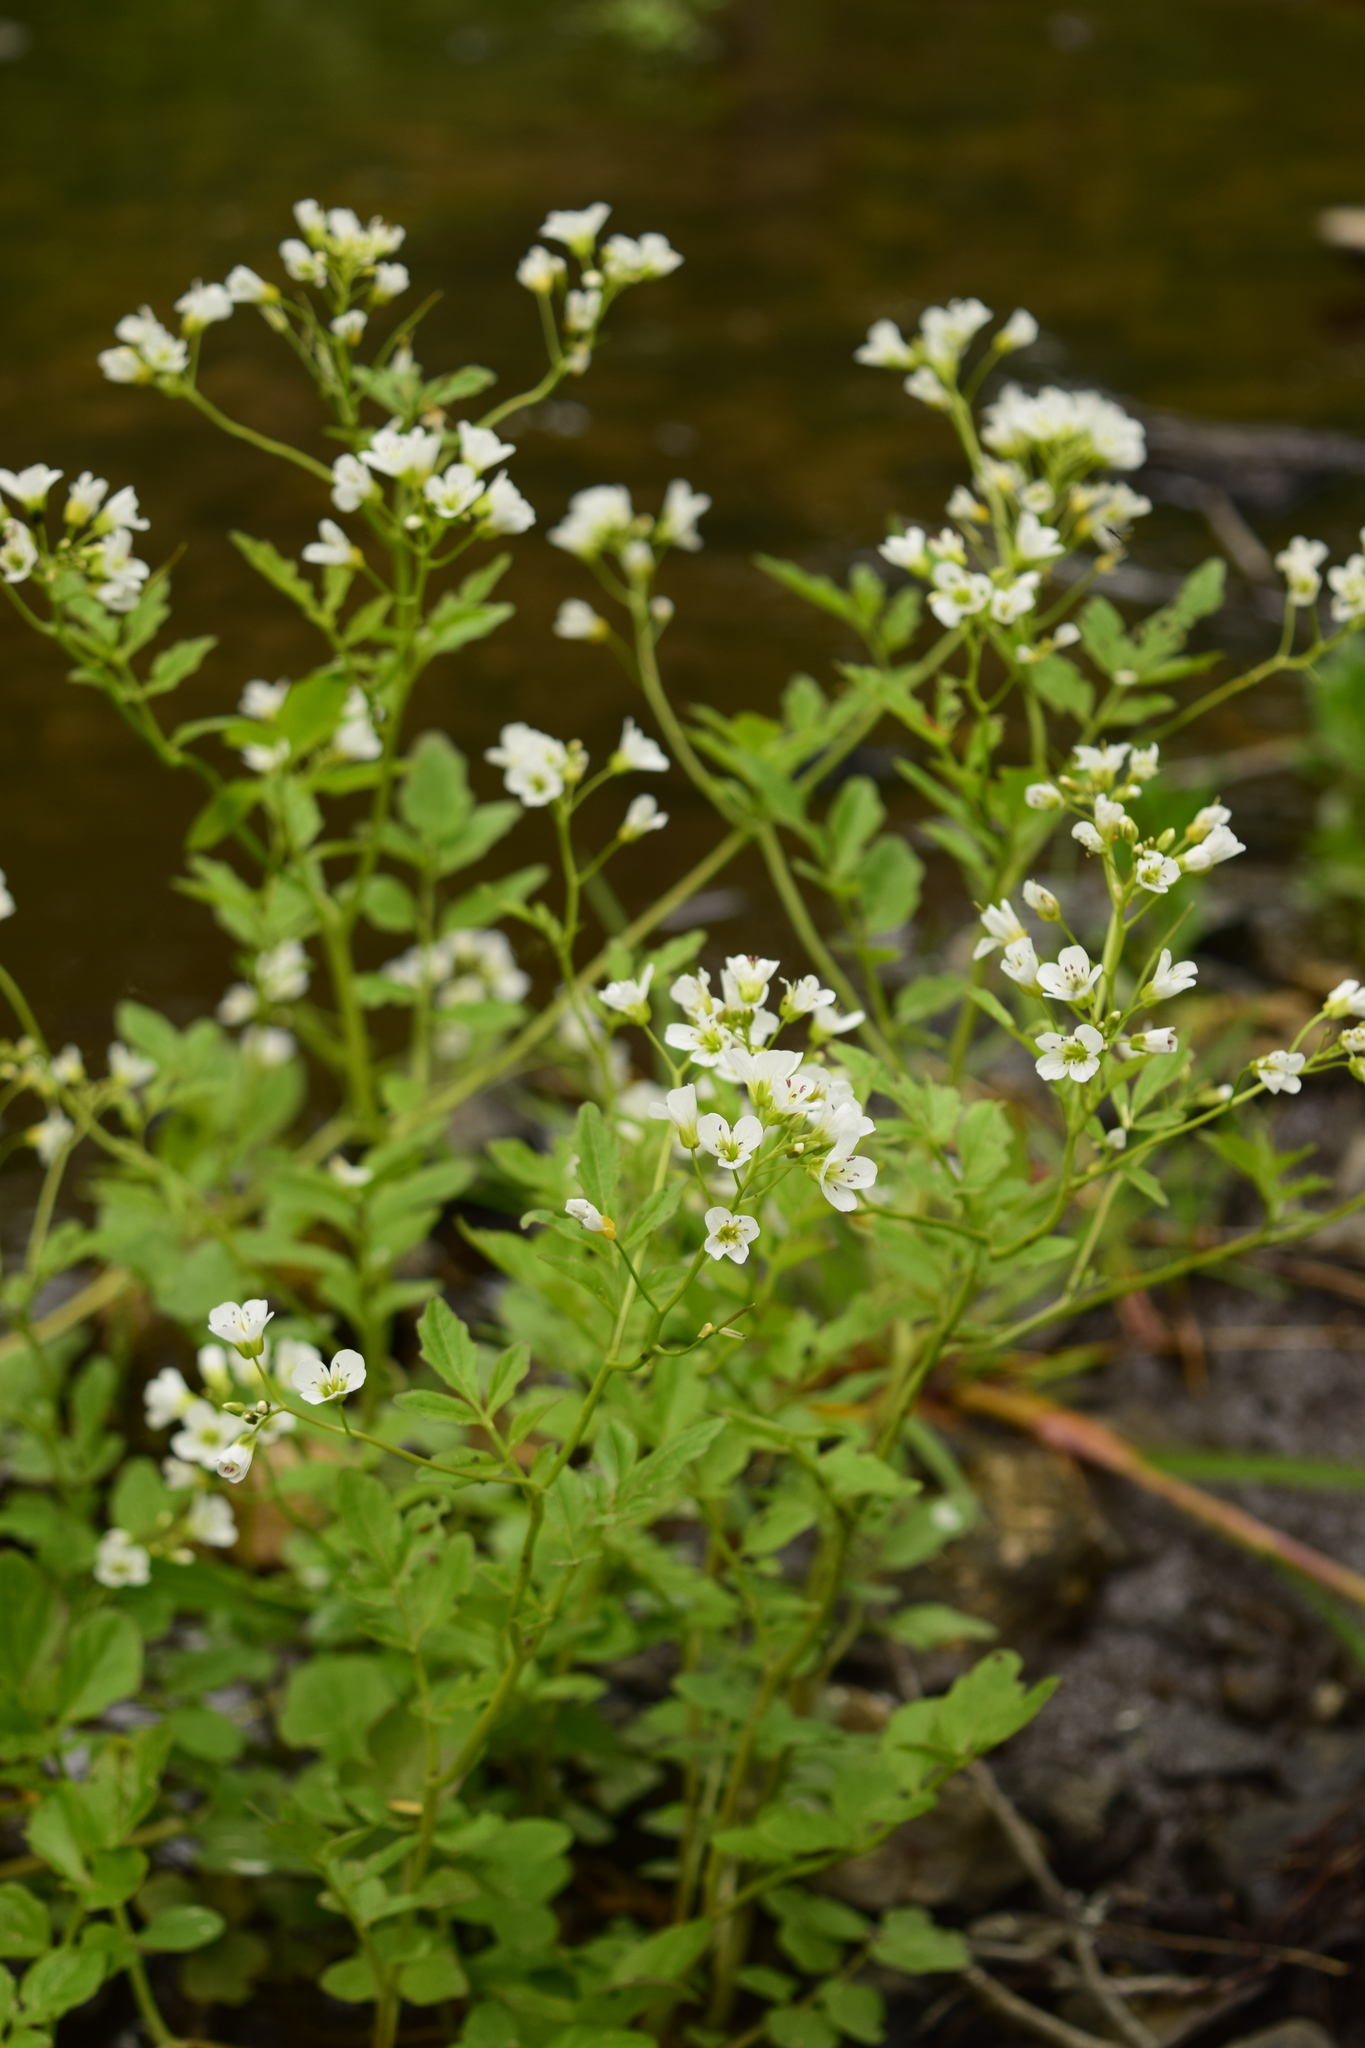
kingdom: Plantae
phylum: Tracheophyta
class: Magnoliopsida
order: Brassicales
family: Brassicaceae
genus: Cardamine
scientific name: Cardamine amara
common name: Large bitter-cress
